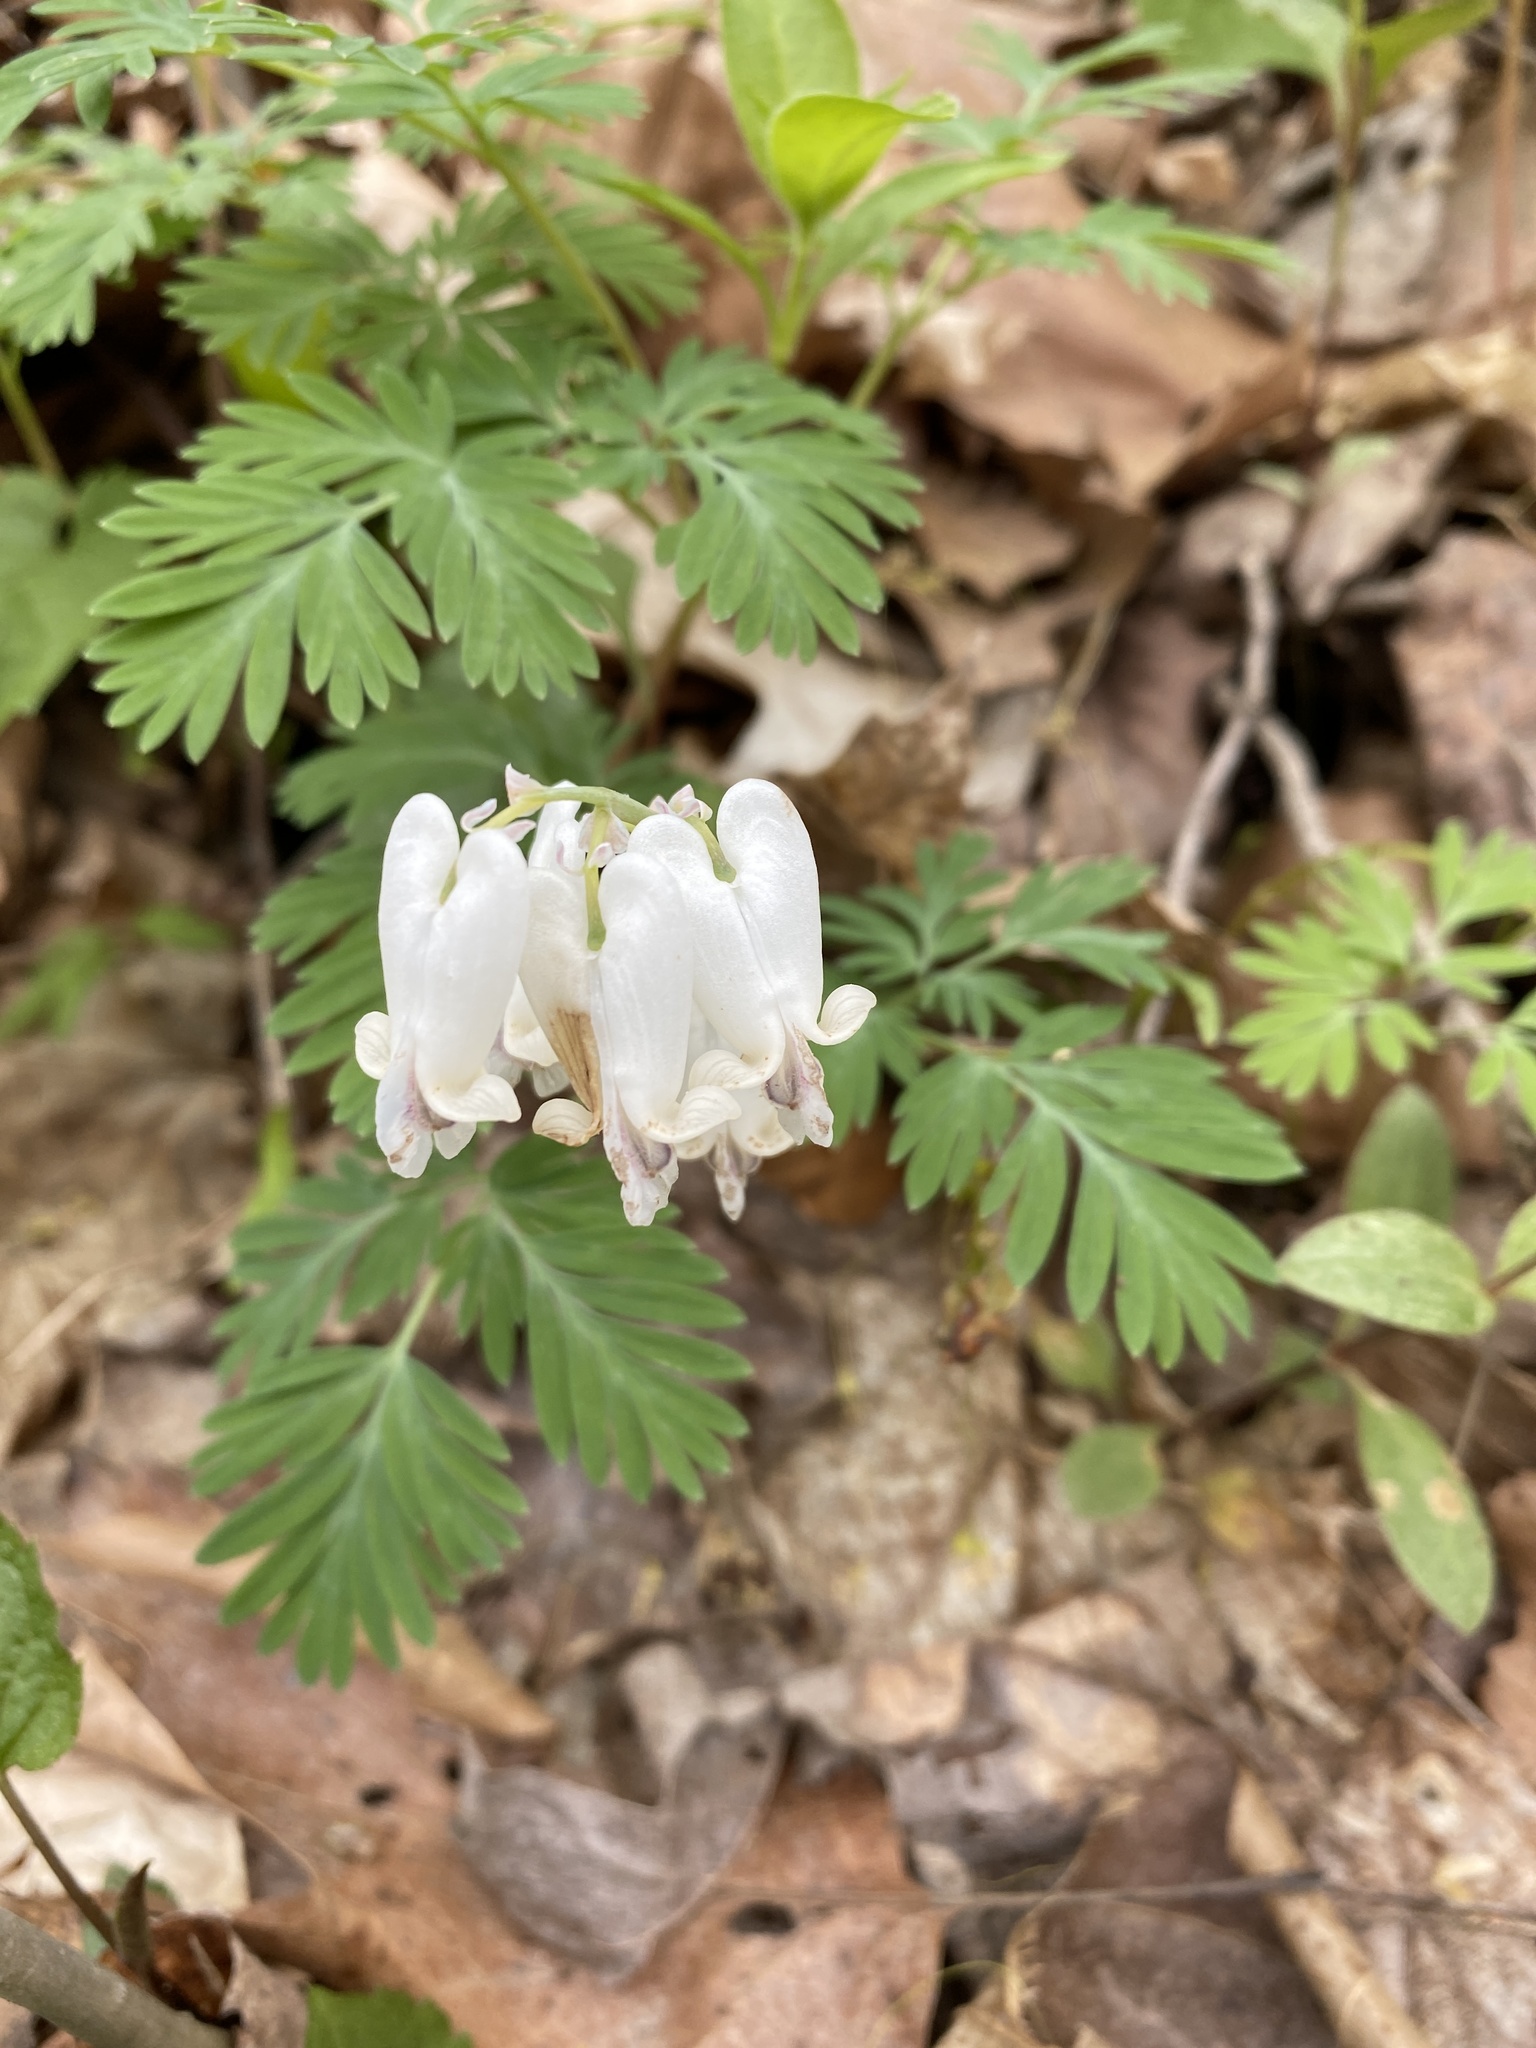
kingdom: Plantae
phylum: Tracheophyta
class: Magnoliopsida
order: Ranunculales
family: Papaveraceae
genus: Dicentra
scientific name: Dicentra canadensis
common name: Squirrel-corn
